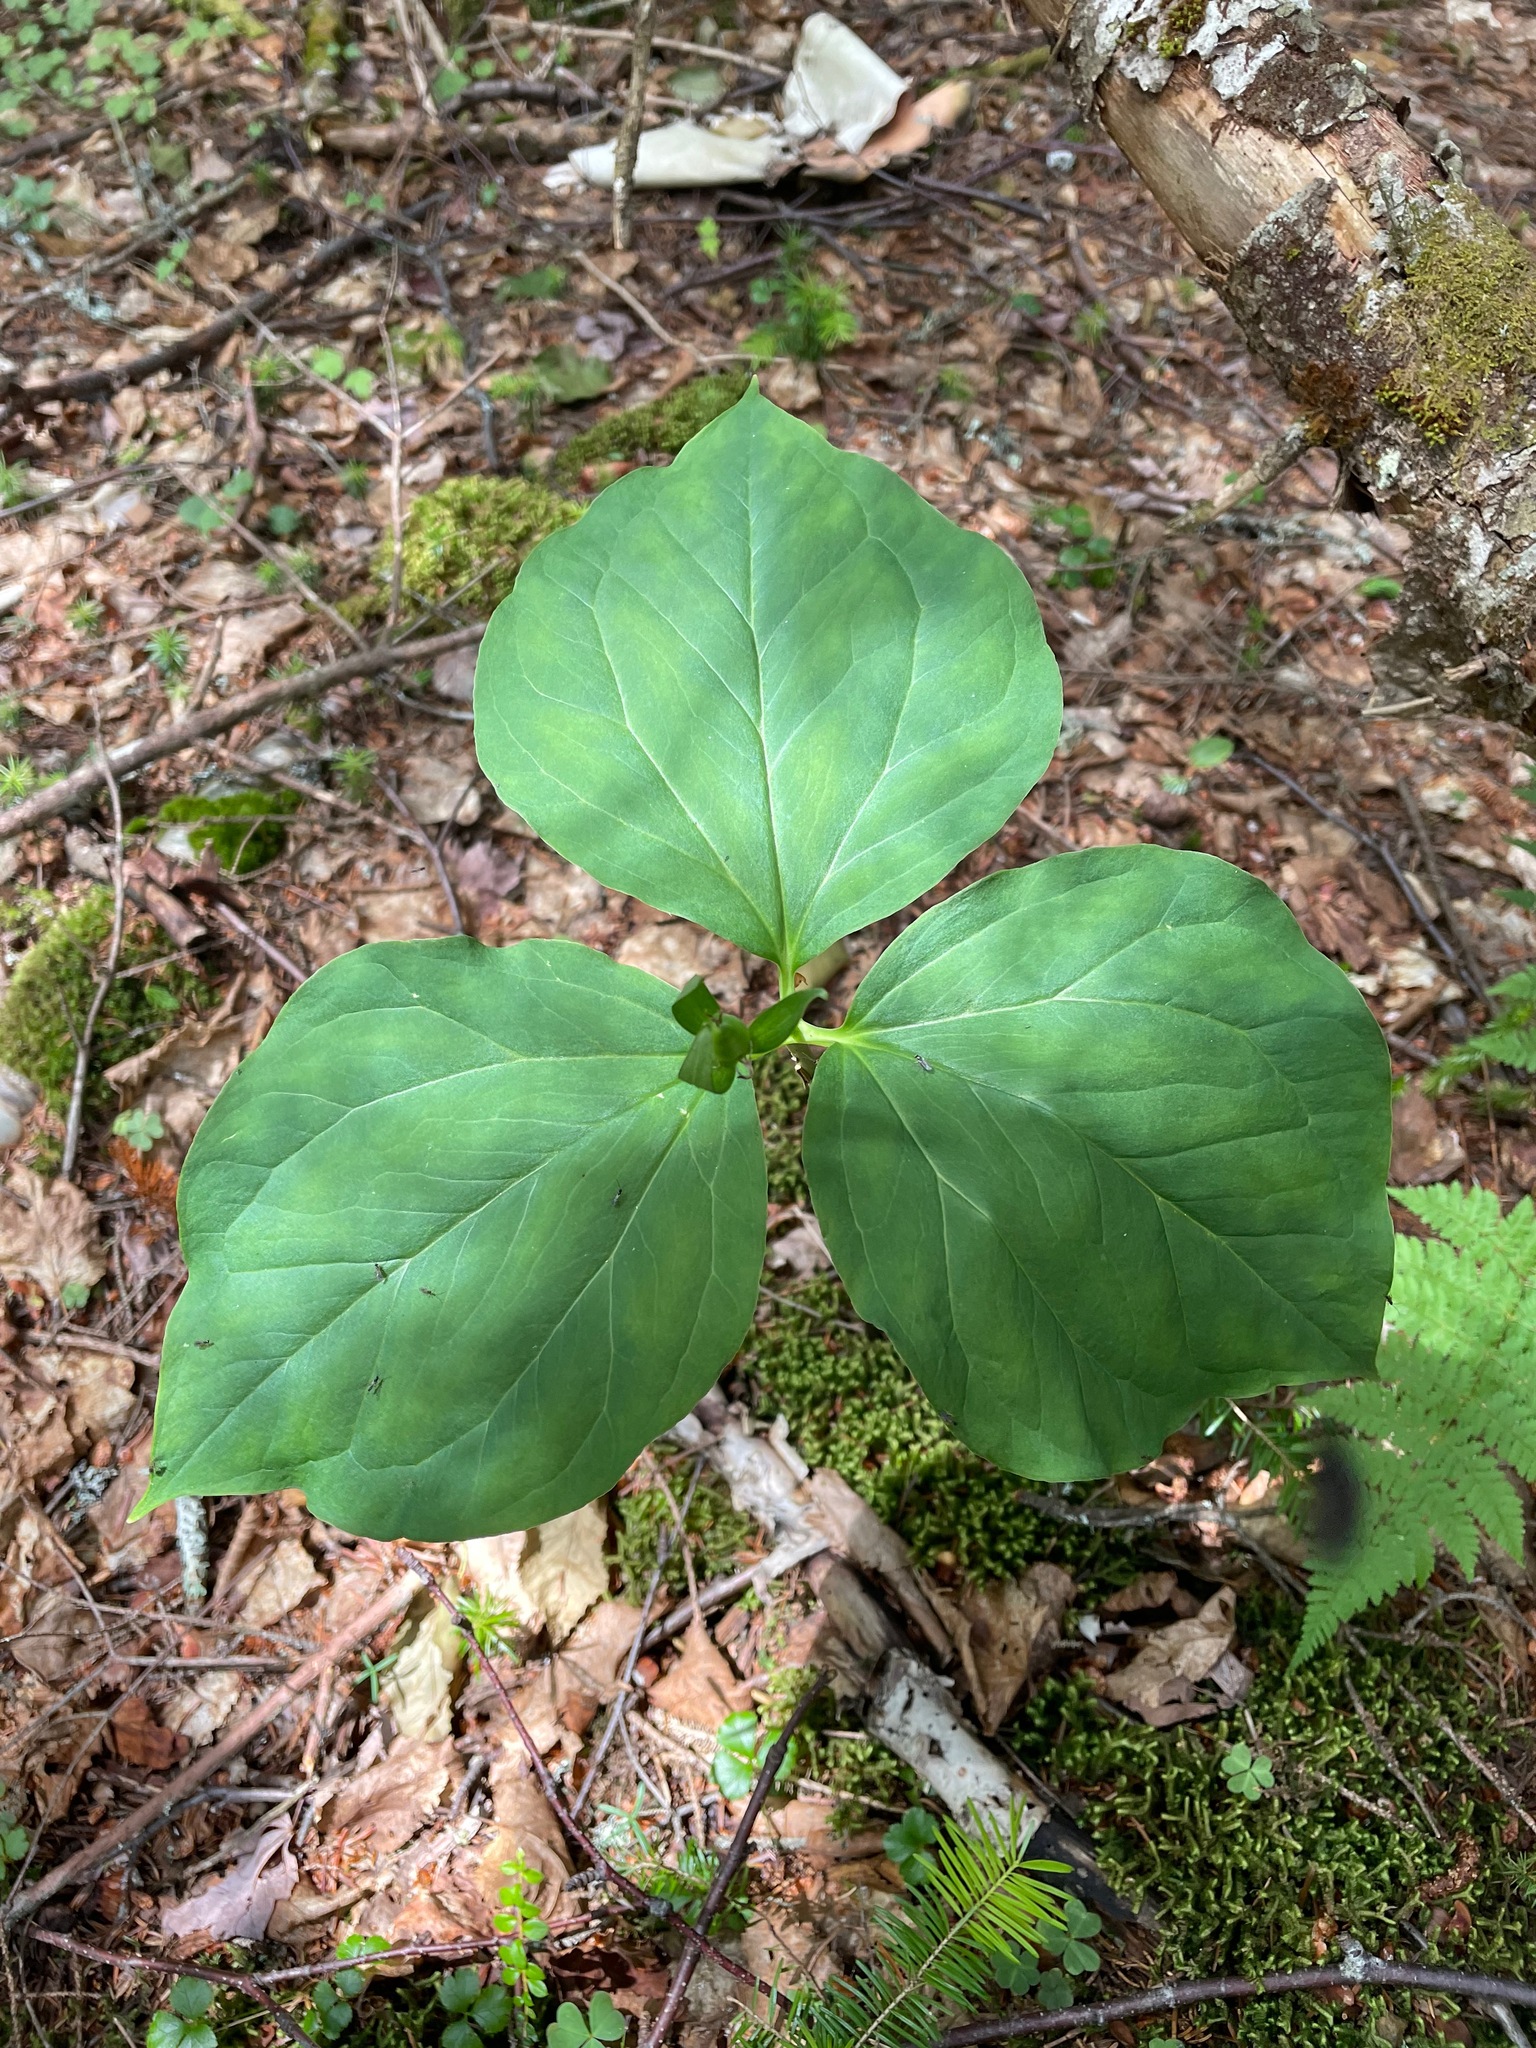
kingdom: Plantae
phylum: Tracheophyta
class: Liliopsida
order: Liliales
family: Melanthiaceae
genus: Trillium
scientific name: Trillium undulatum
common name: Paint trillium
